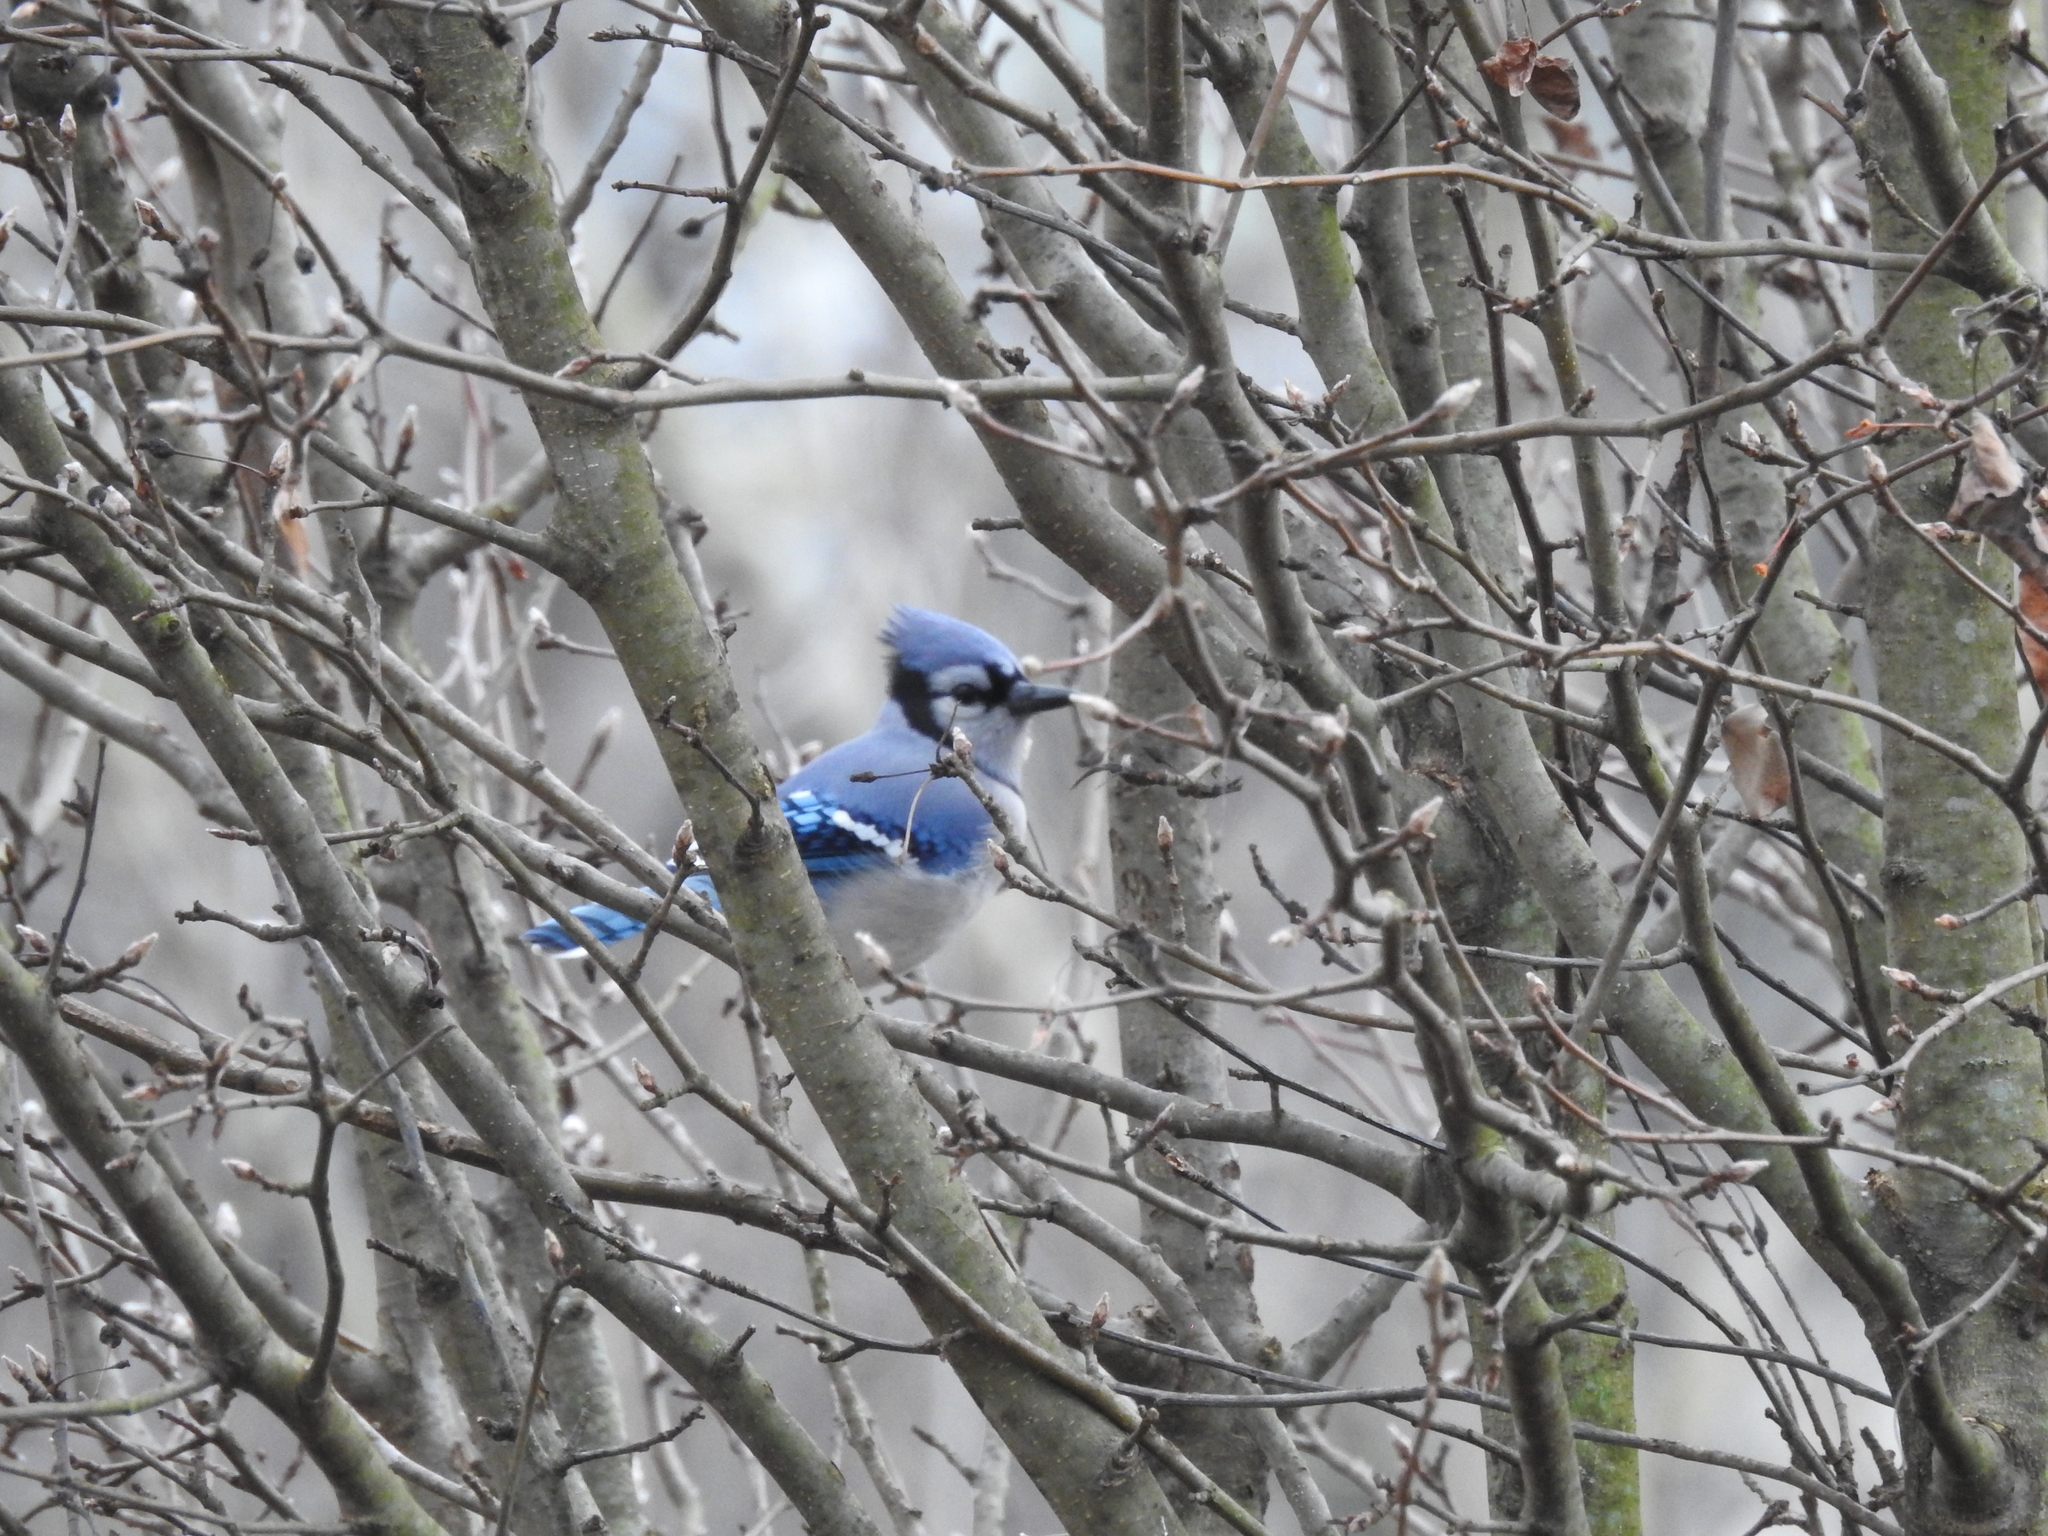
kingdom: Animalia
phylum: Chordata
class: Aves
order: Passeriformes
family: Corvidae
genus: Cyanocitta
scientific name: Cyanocitta cristata
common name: Blue jay
